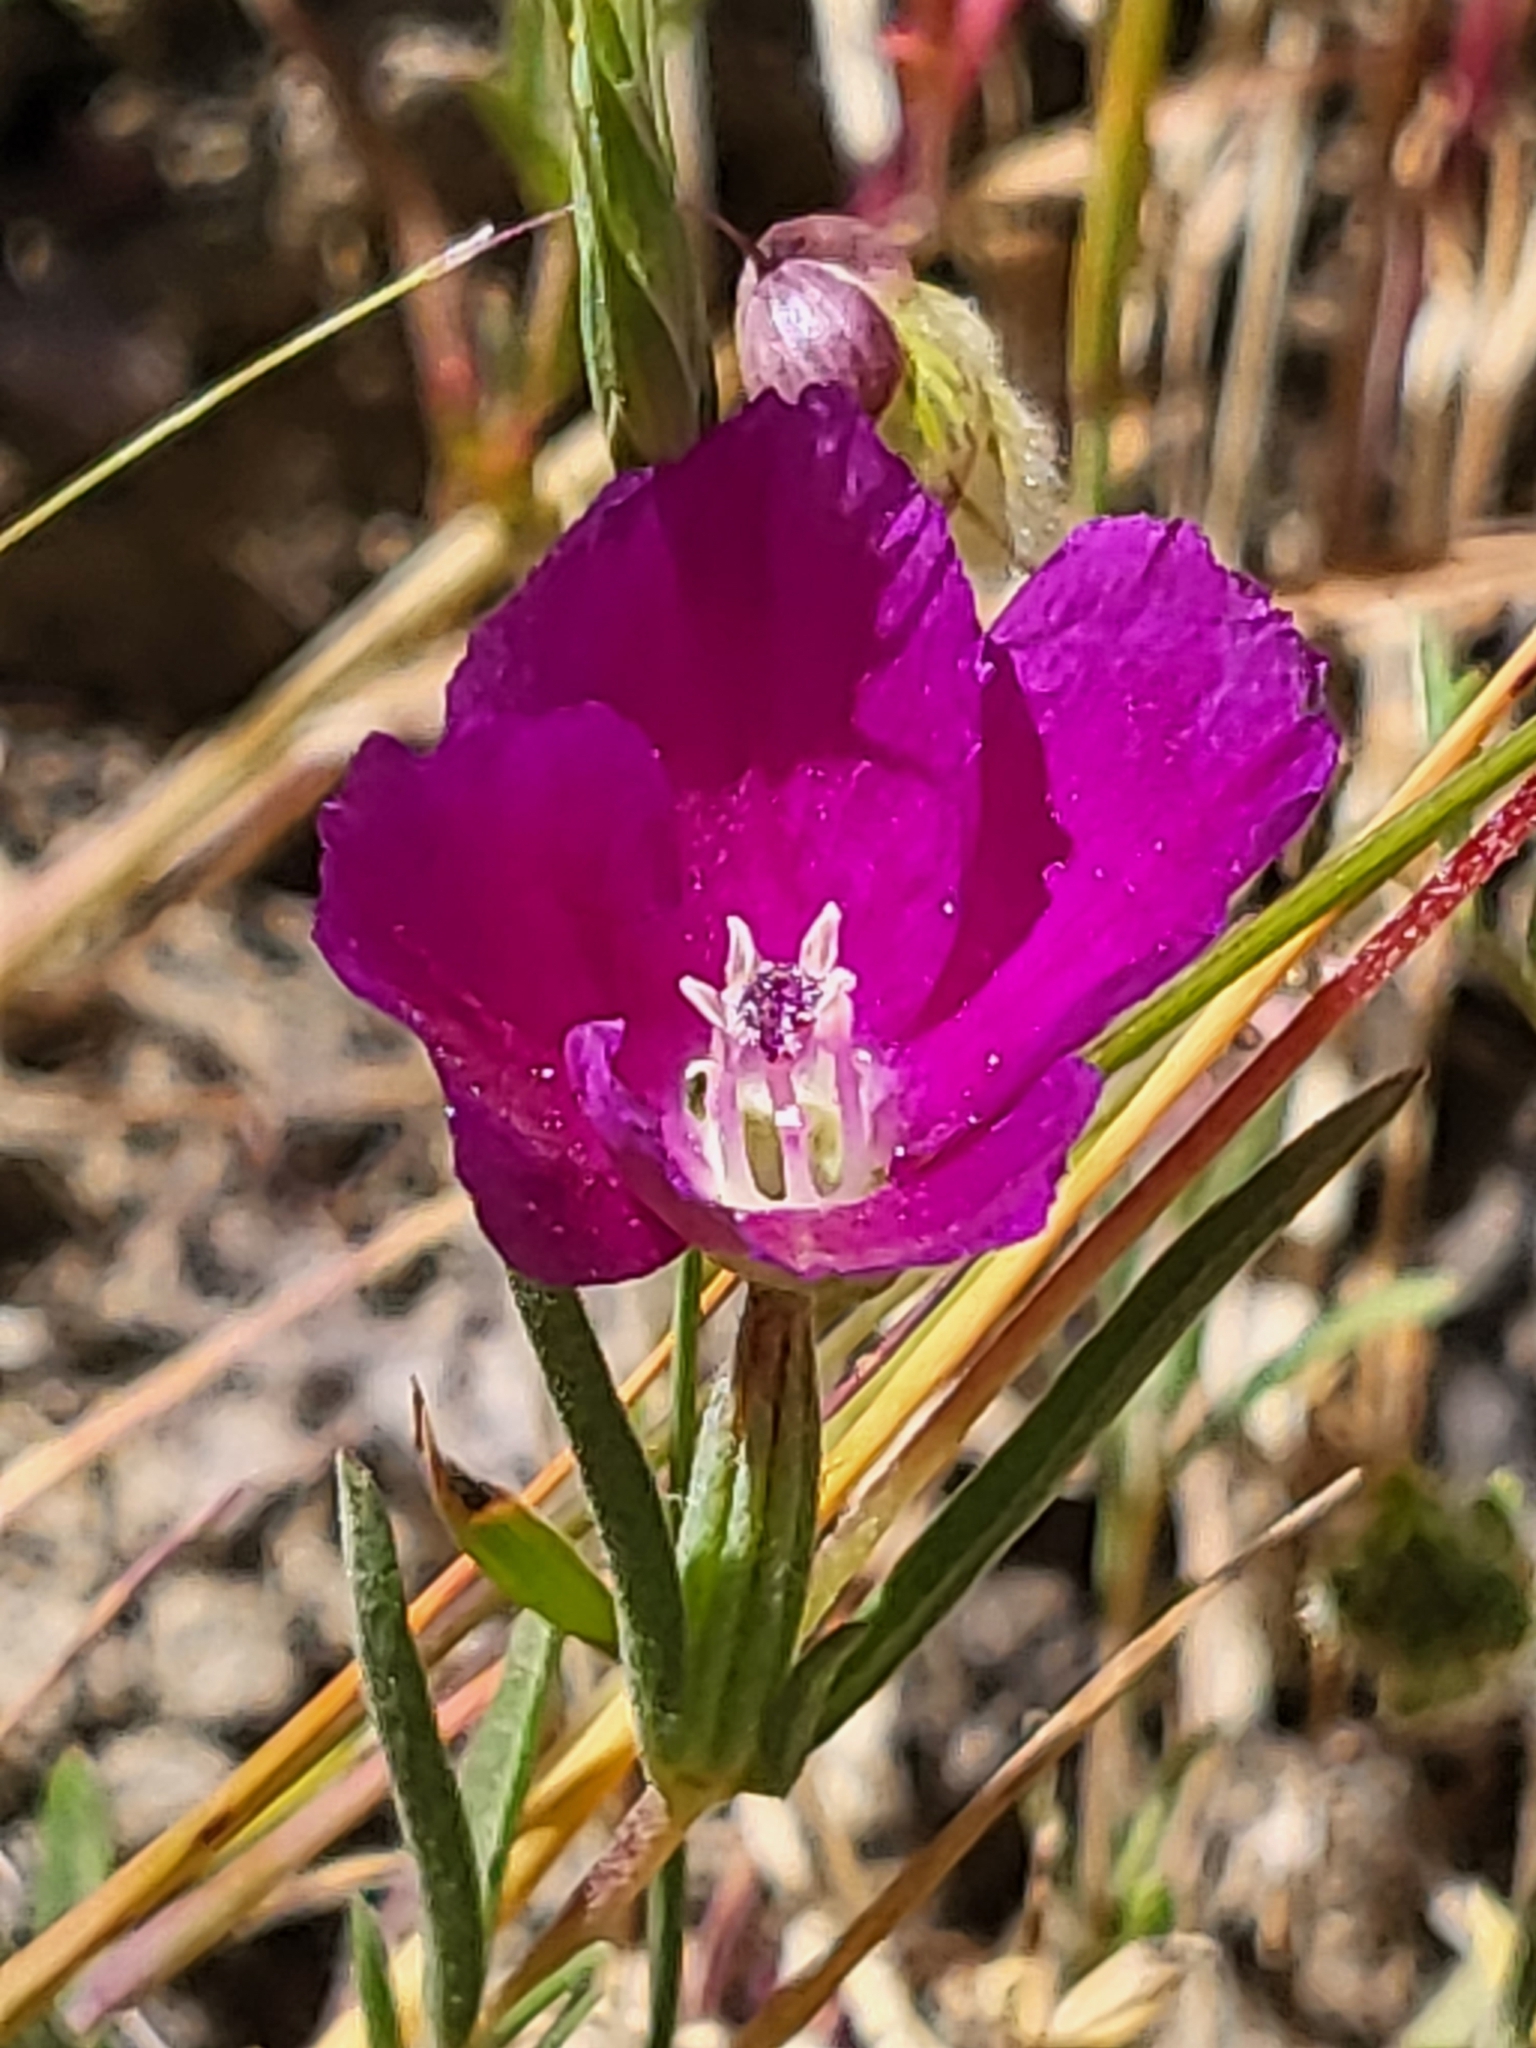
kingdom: Plantae
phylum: Tracheophyta
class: Magnoliopsida
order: Myrtales
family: Onagraceae
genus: Clarkia
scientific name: Clarkia purpurea
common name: Purple clarkia
